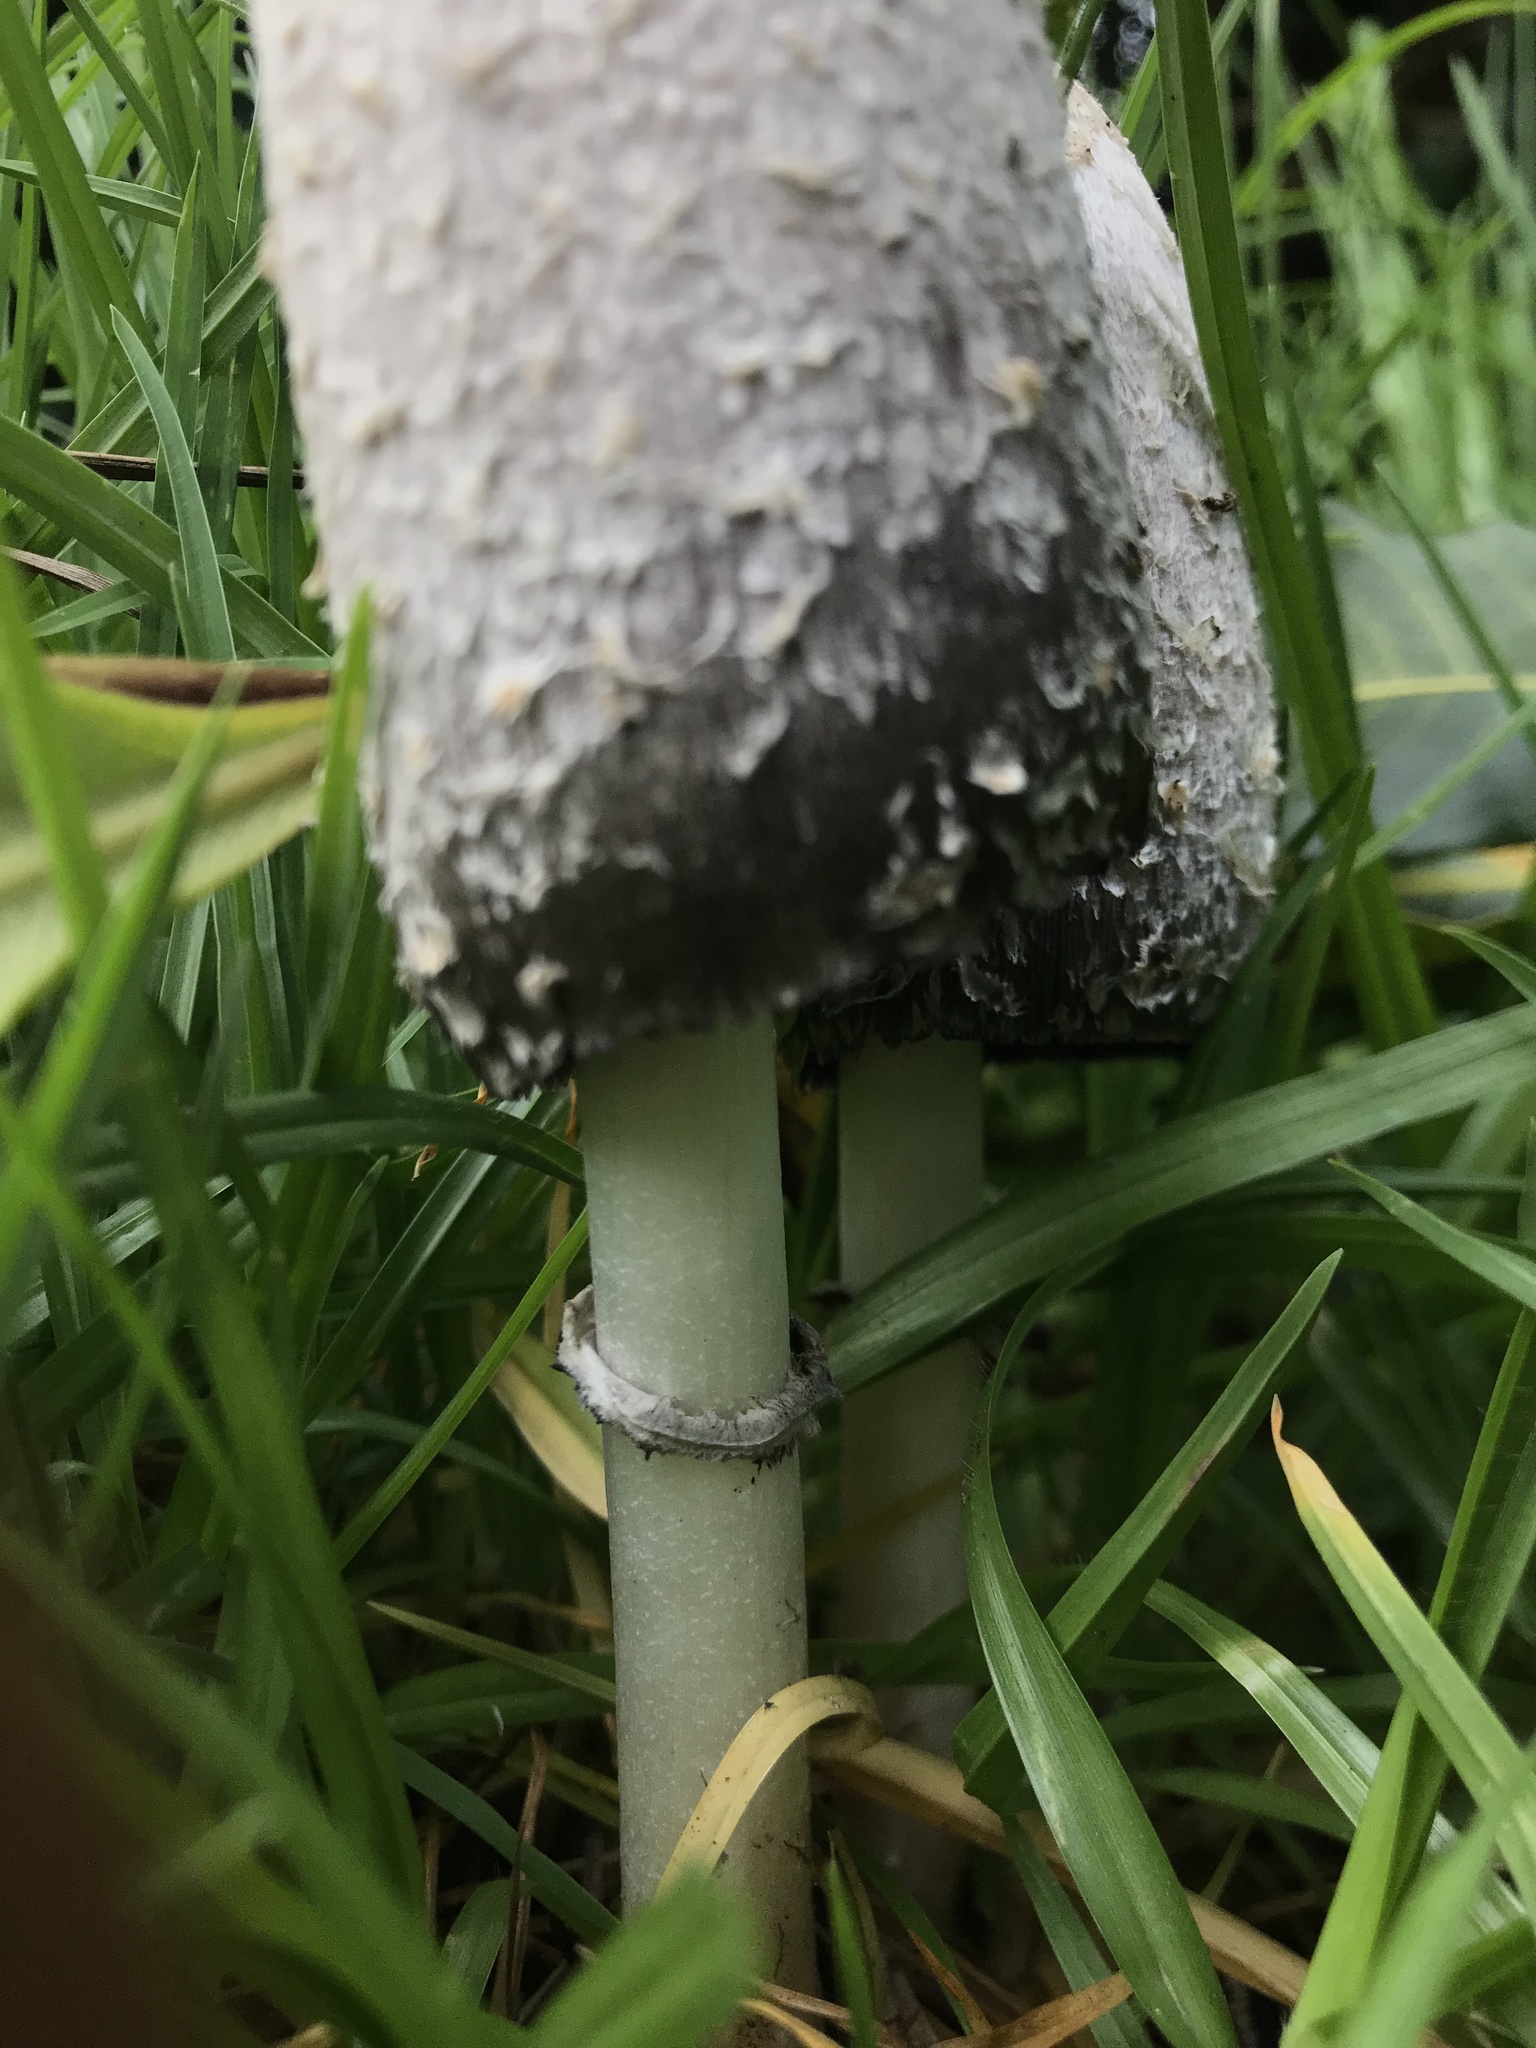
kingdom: Fungi
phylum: Basidiomycota
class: Agaricomycetes
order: Agaricales
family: Agaricaceae
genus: Coprinus
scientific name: Coprinus comatus
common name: Lawyer's wig
